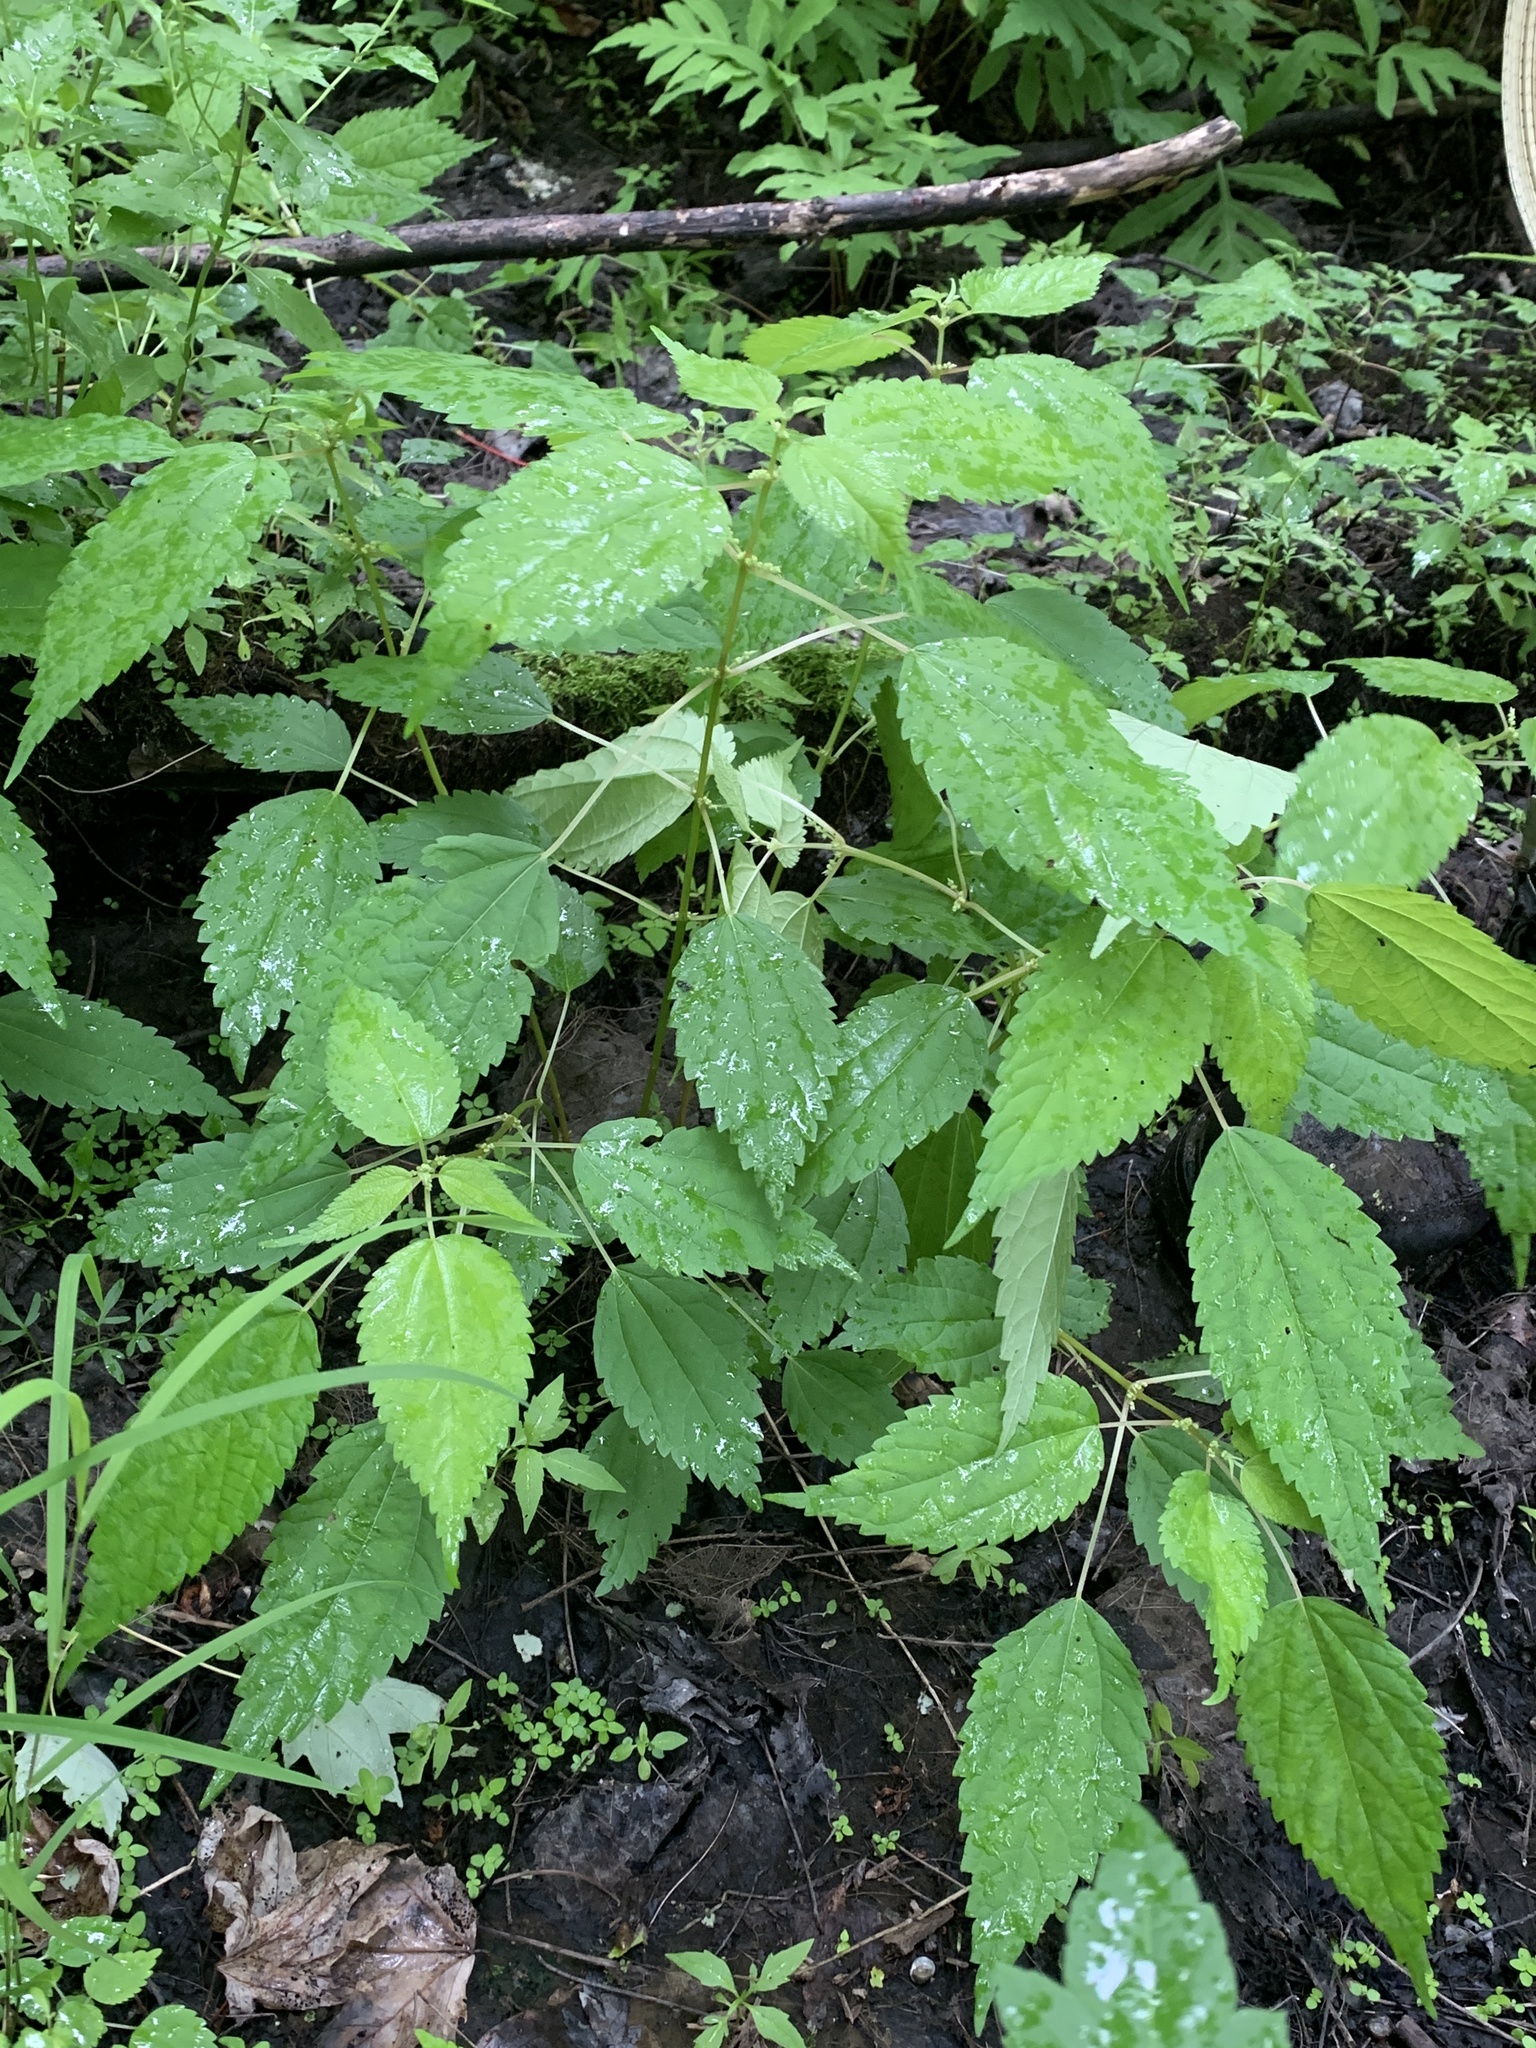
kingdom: Plantae
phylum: Tracheophyta
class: Magnoliopsida
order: Rosales
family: Urticaceae
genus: Boehmeria
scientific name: Boehmeria cylindrica
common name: Bog-hemp
